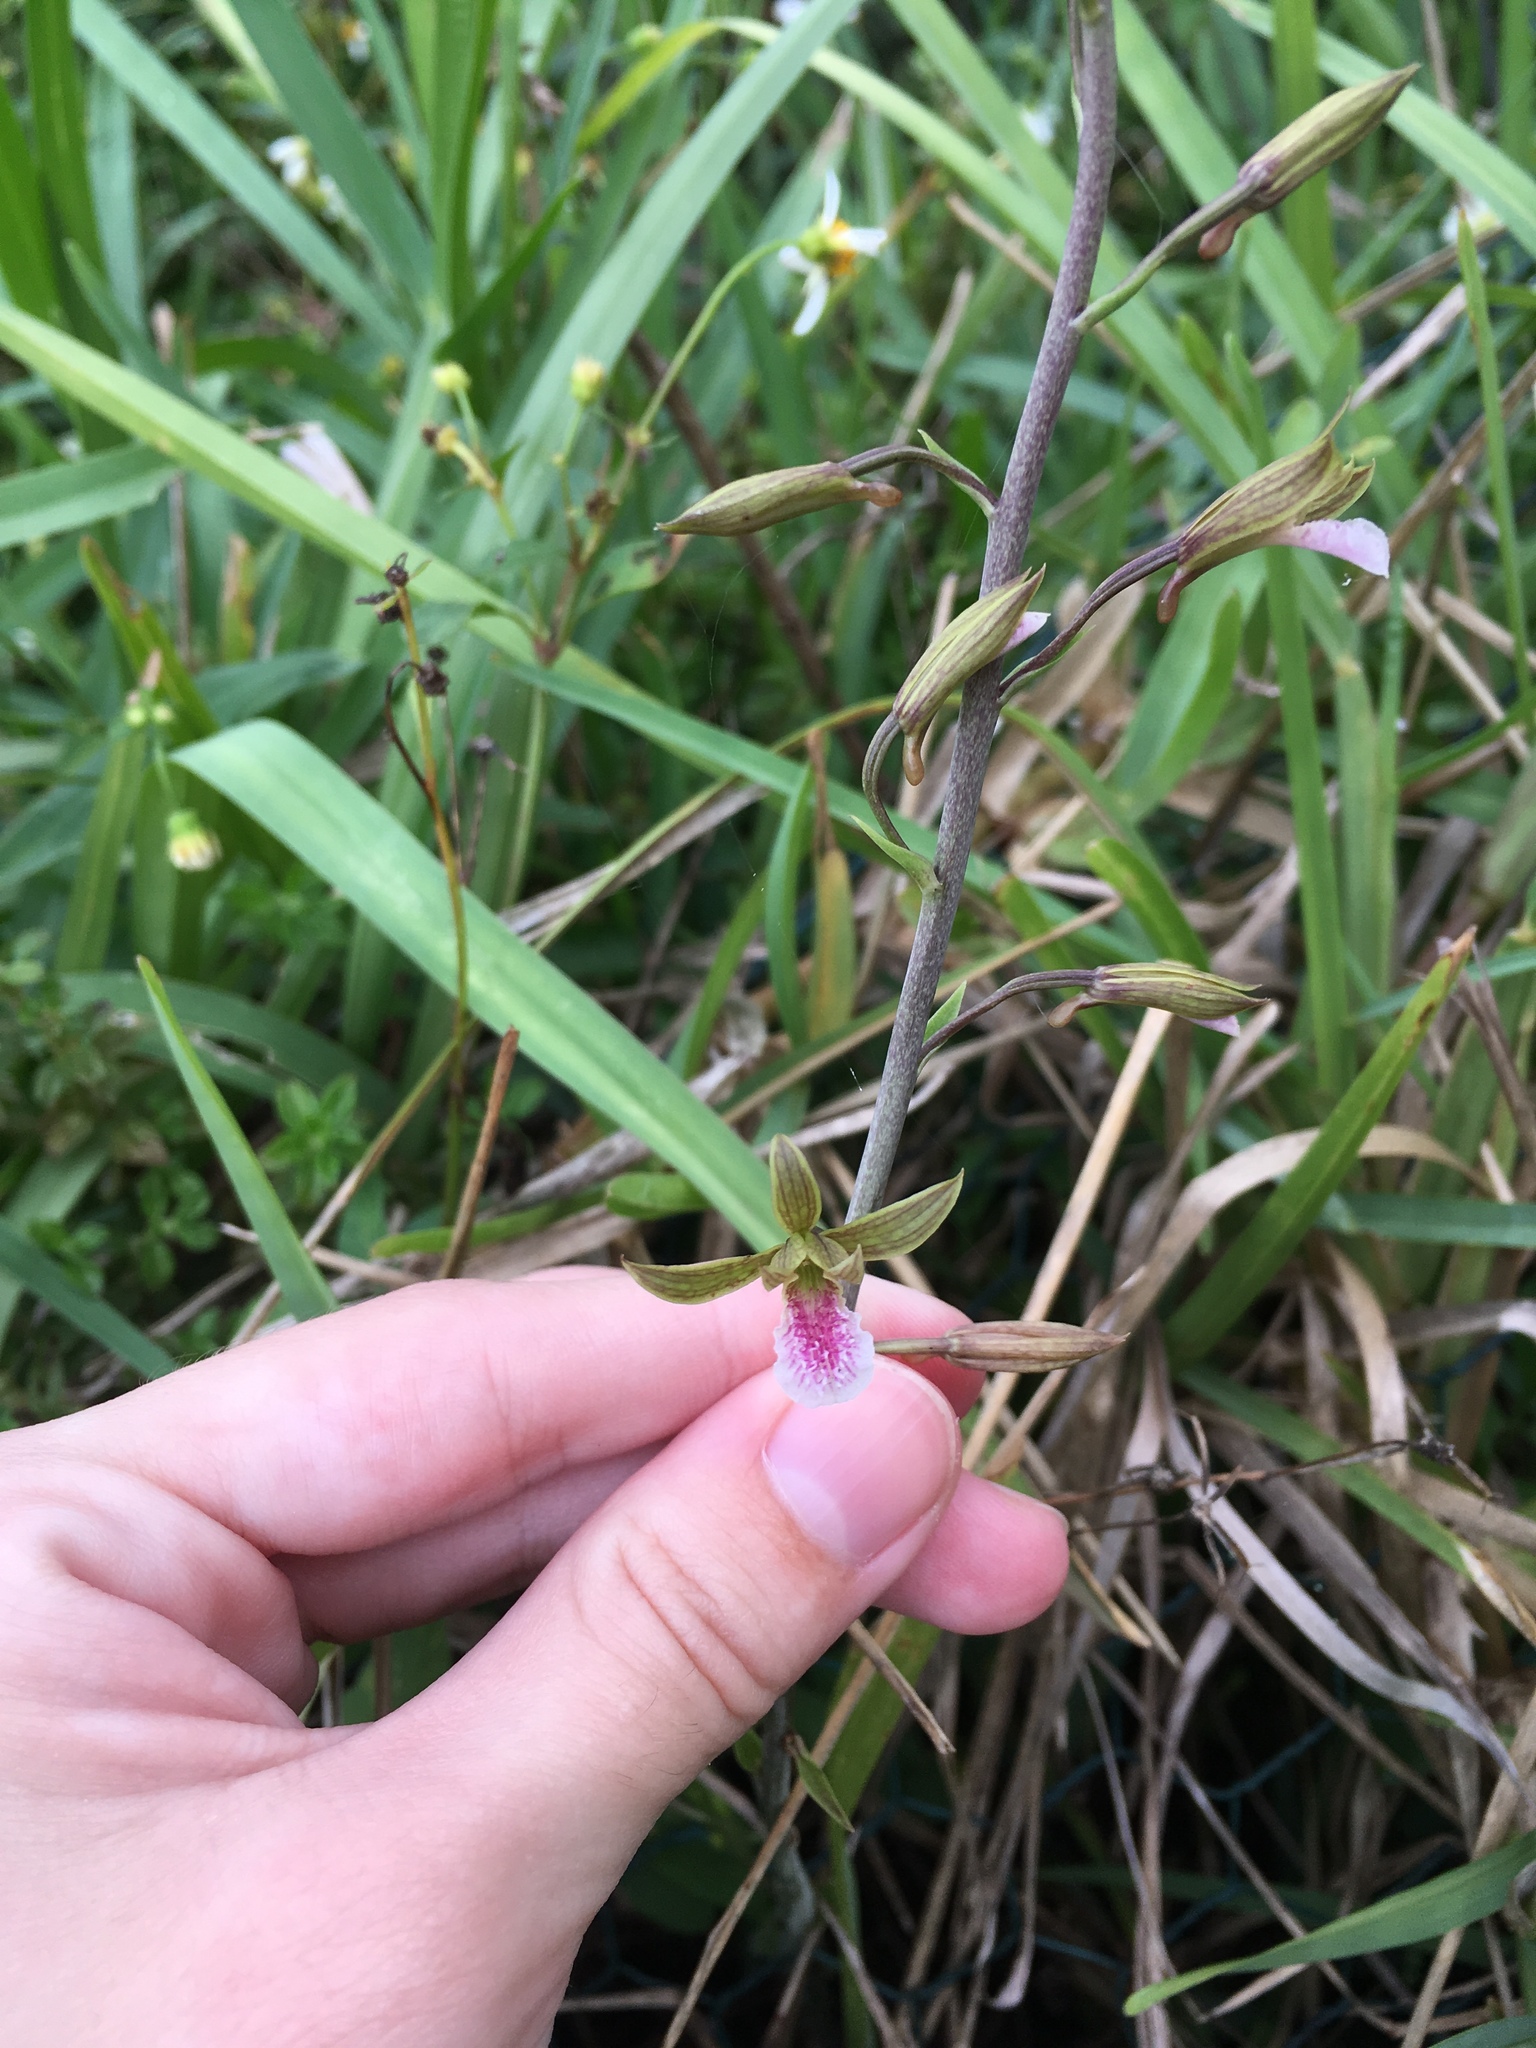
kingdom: Plantae
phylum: Tracheophyta
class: Liliopsida
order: Asparagales
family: Orchidaceae
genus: Eulophia
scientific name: Eulophia graminea
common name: Orchid
